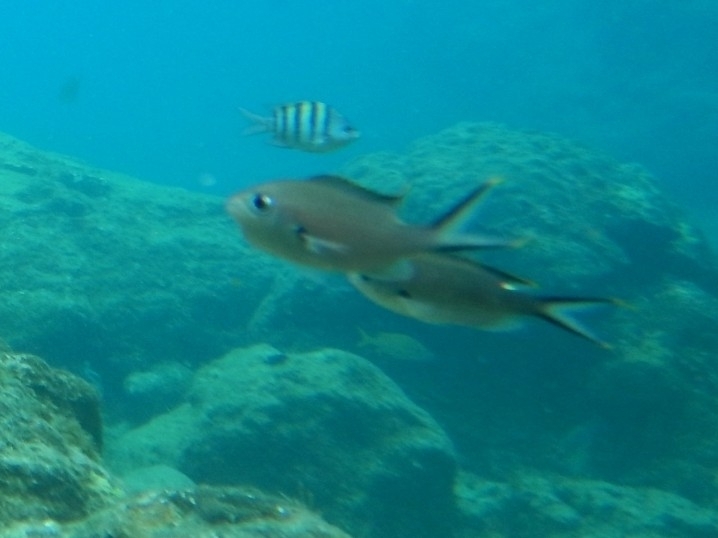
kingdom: Animalia
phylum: Chordata
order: Perciformes
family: Pomacentridae
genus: Chromis
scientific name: Chromis multilineata
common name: Brown chromis
